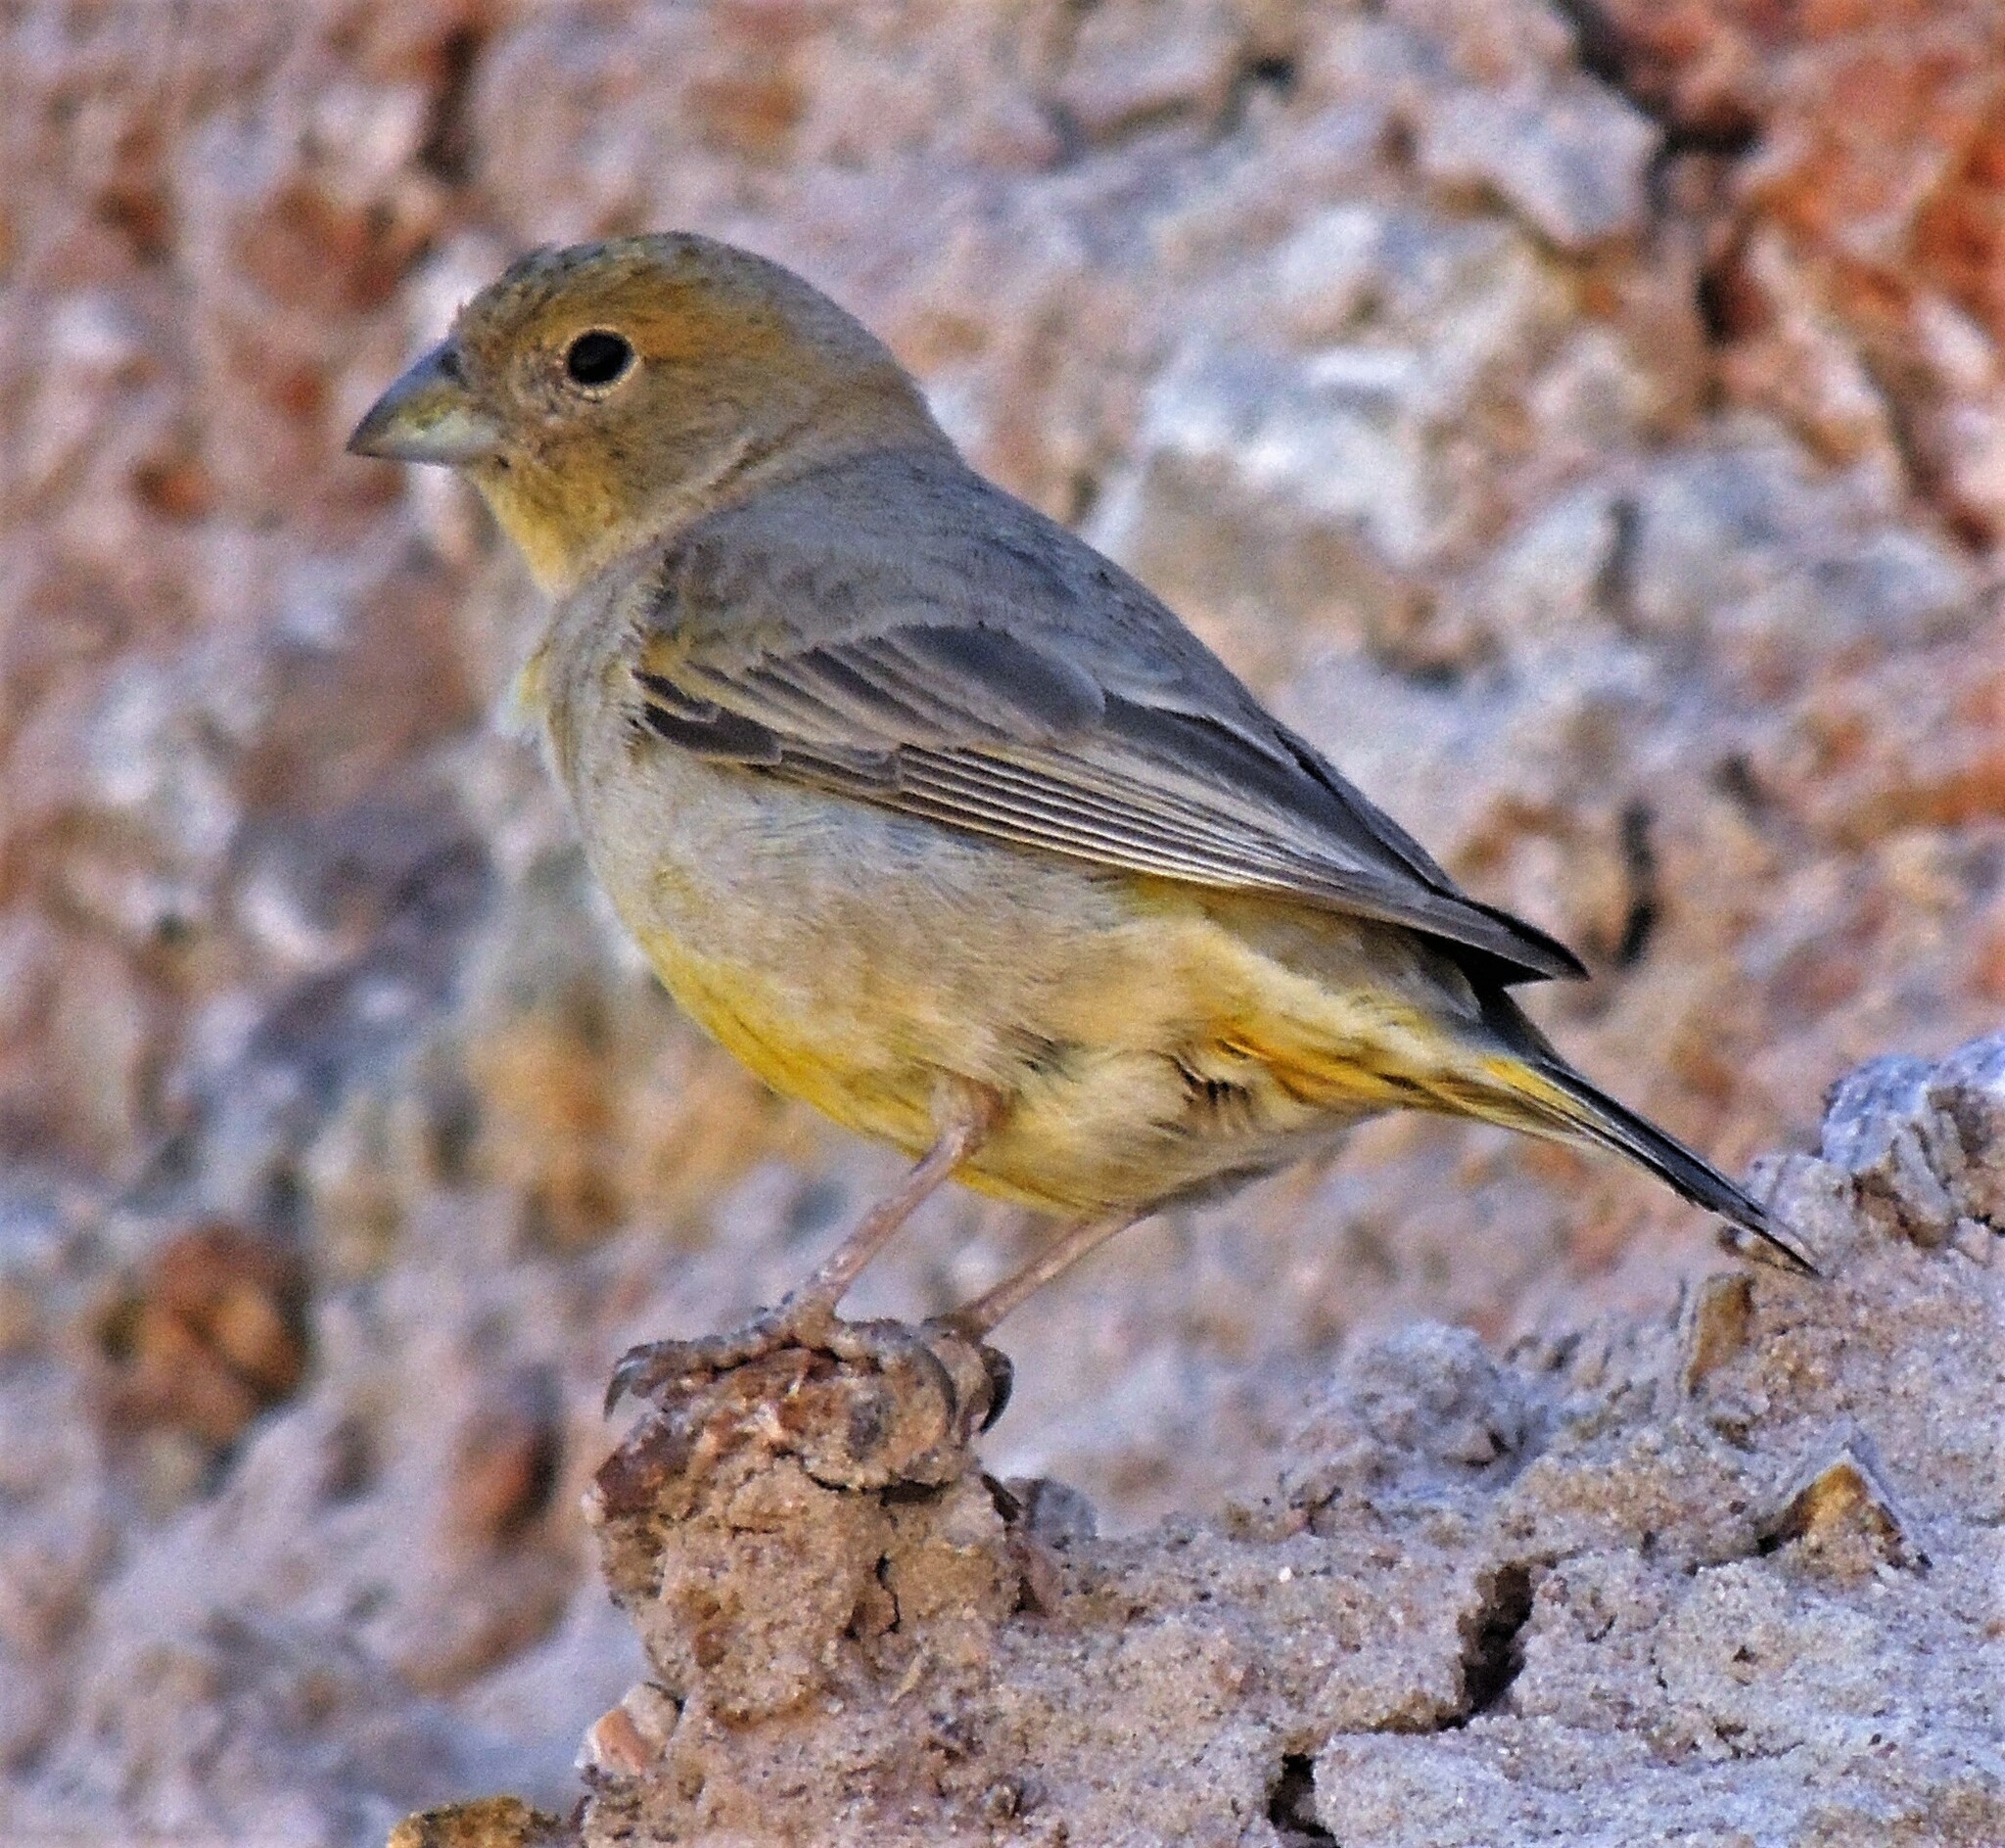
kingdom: Animalia
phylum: Chordata
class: Aves
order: Passeriformes
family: Thraupidae
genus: Sicalis
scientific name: Sicalis mendozae
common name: Monte yellow-finch
